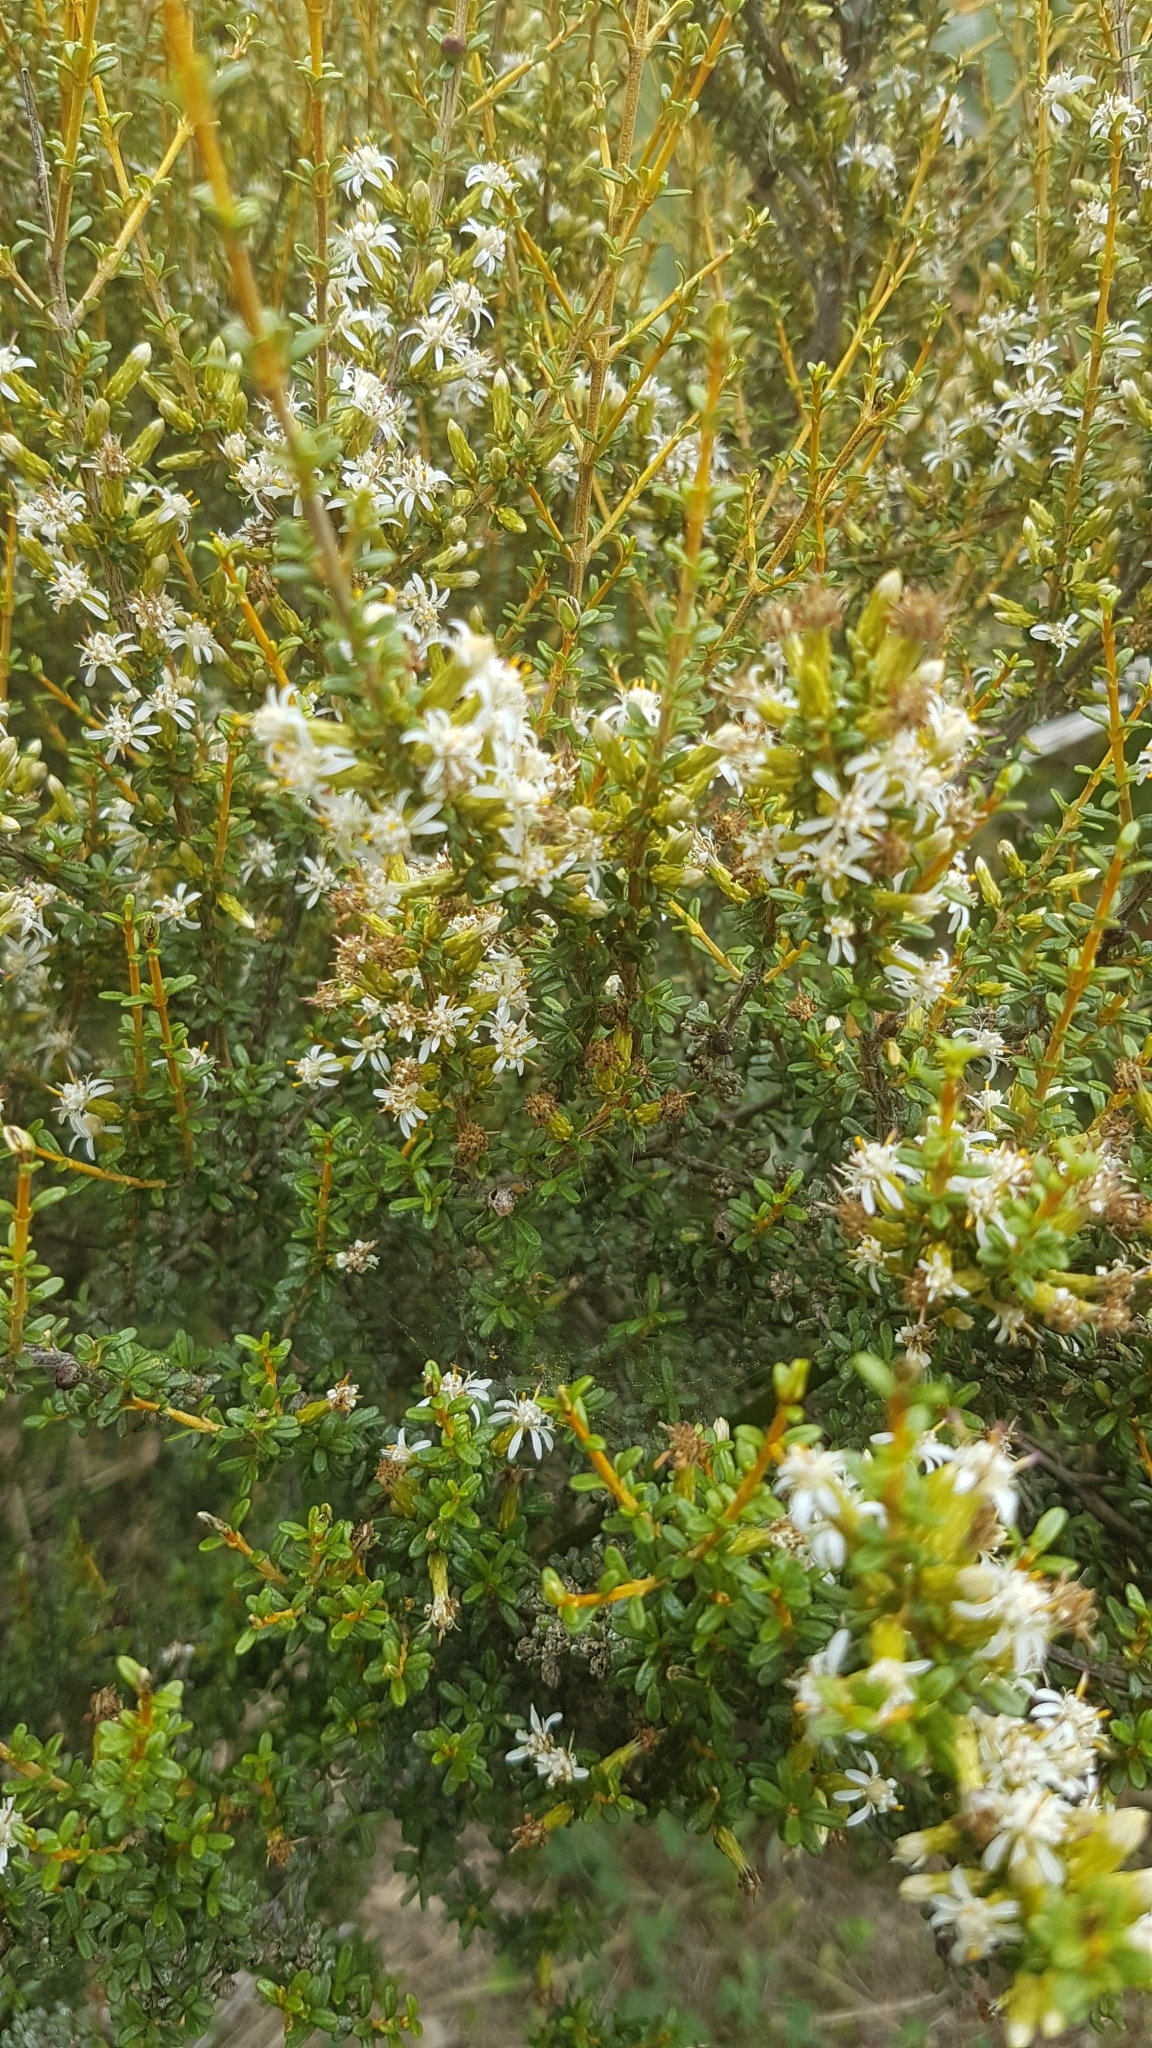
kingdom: Plantae
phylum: Tracheophyta
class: Magnoliopsida
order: Asterales
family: Asteraceae
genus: Olearia
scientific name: Olearia solandri
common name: Coastal daisybush
